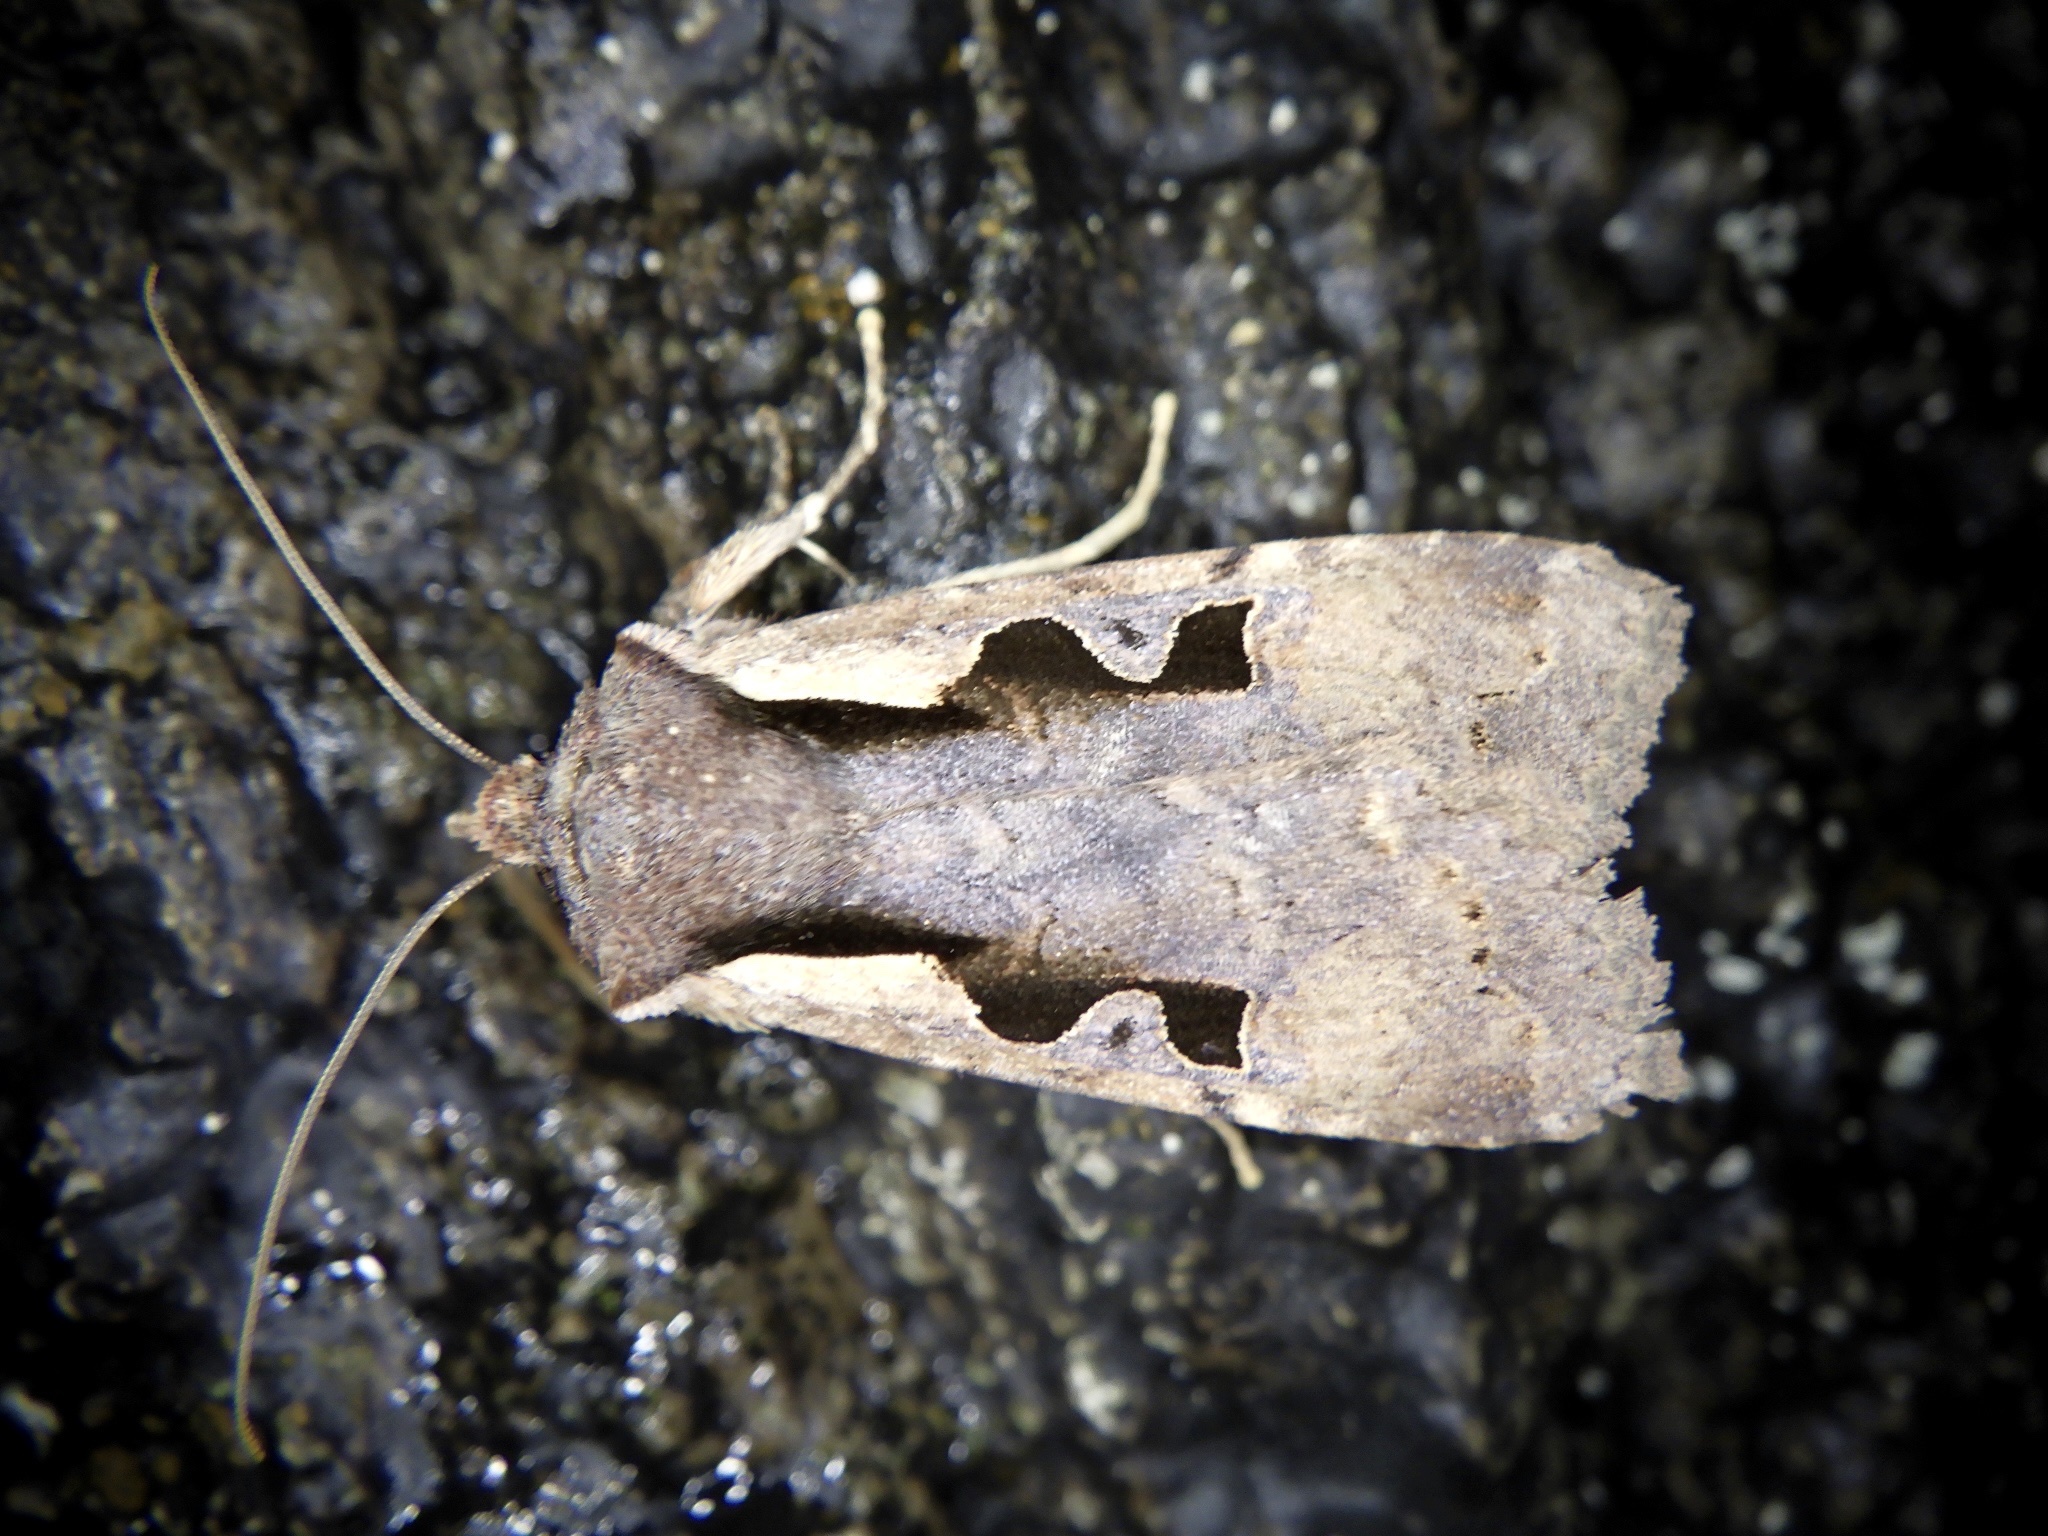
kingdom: Animalia
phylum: Arthropoda
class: Insecta
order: Lepidoptera
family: Noctuidae
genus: Sugitania
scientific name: Sugitania lepida
